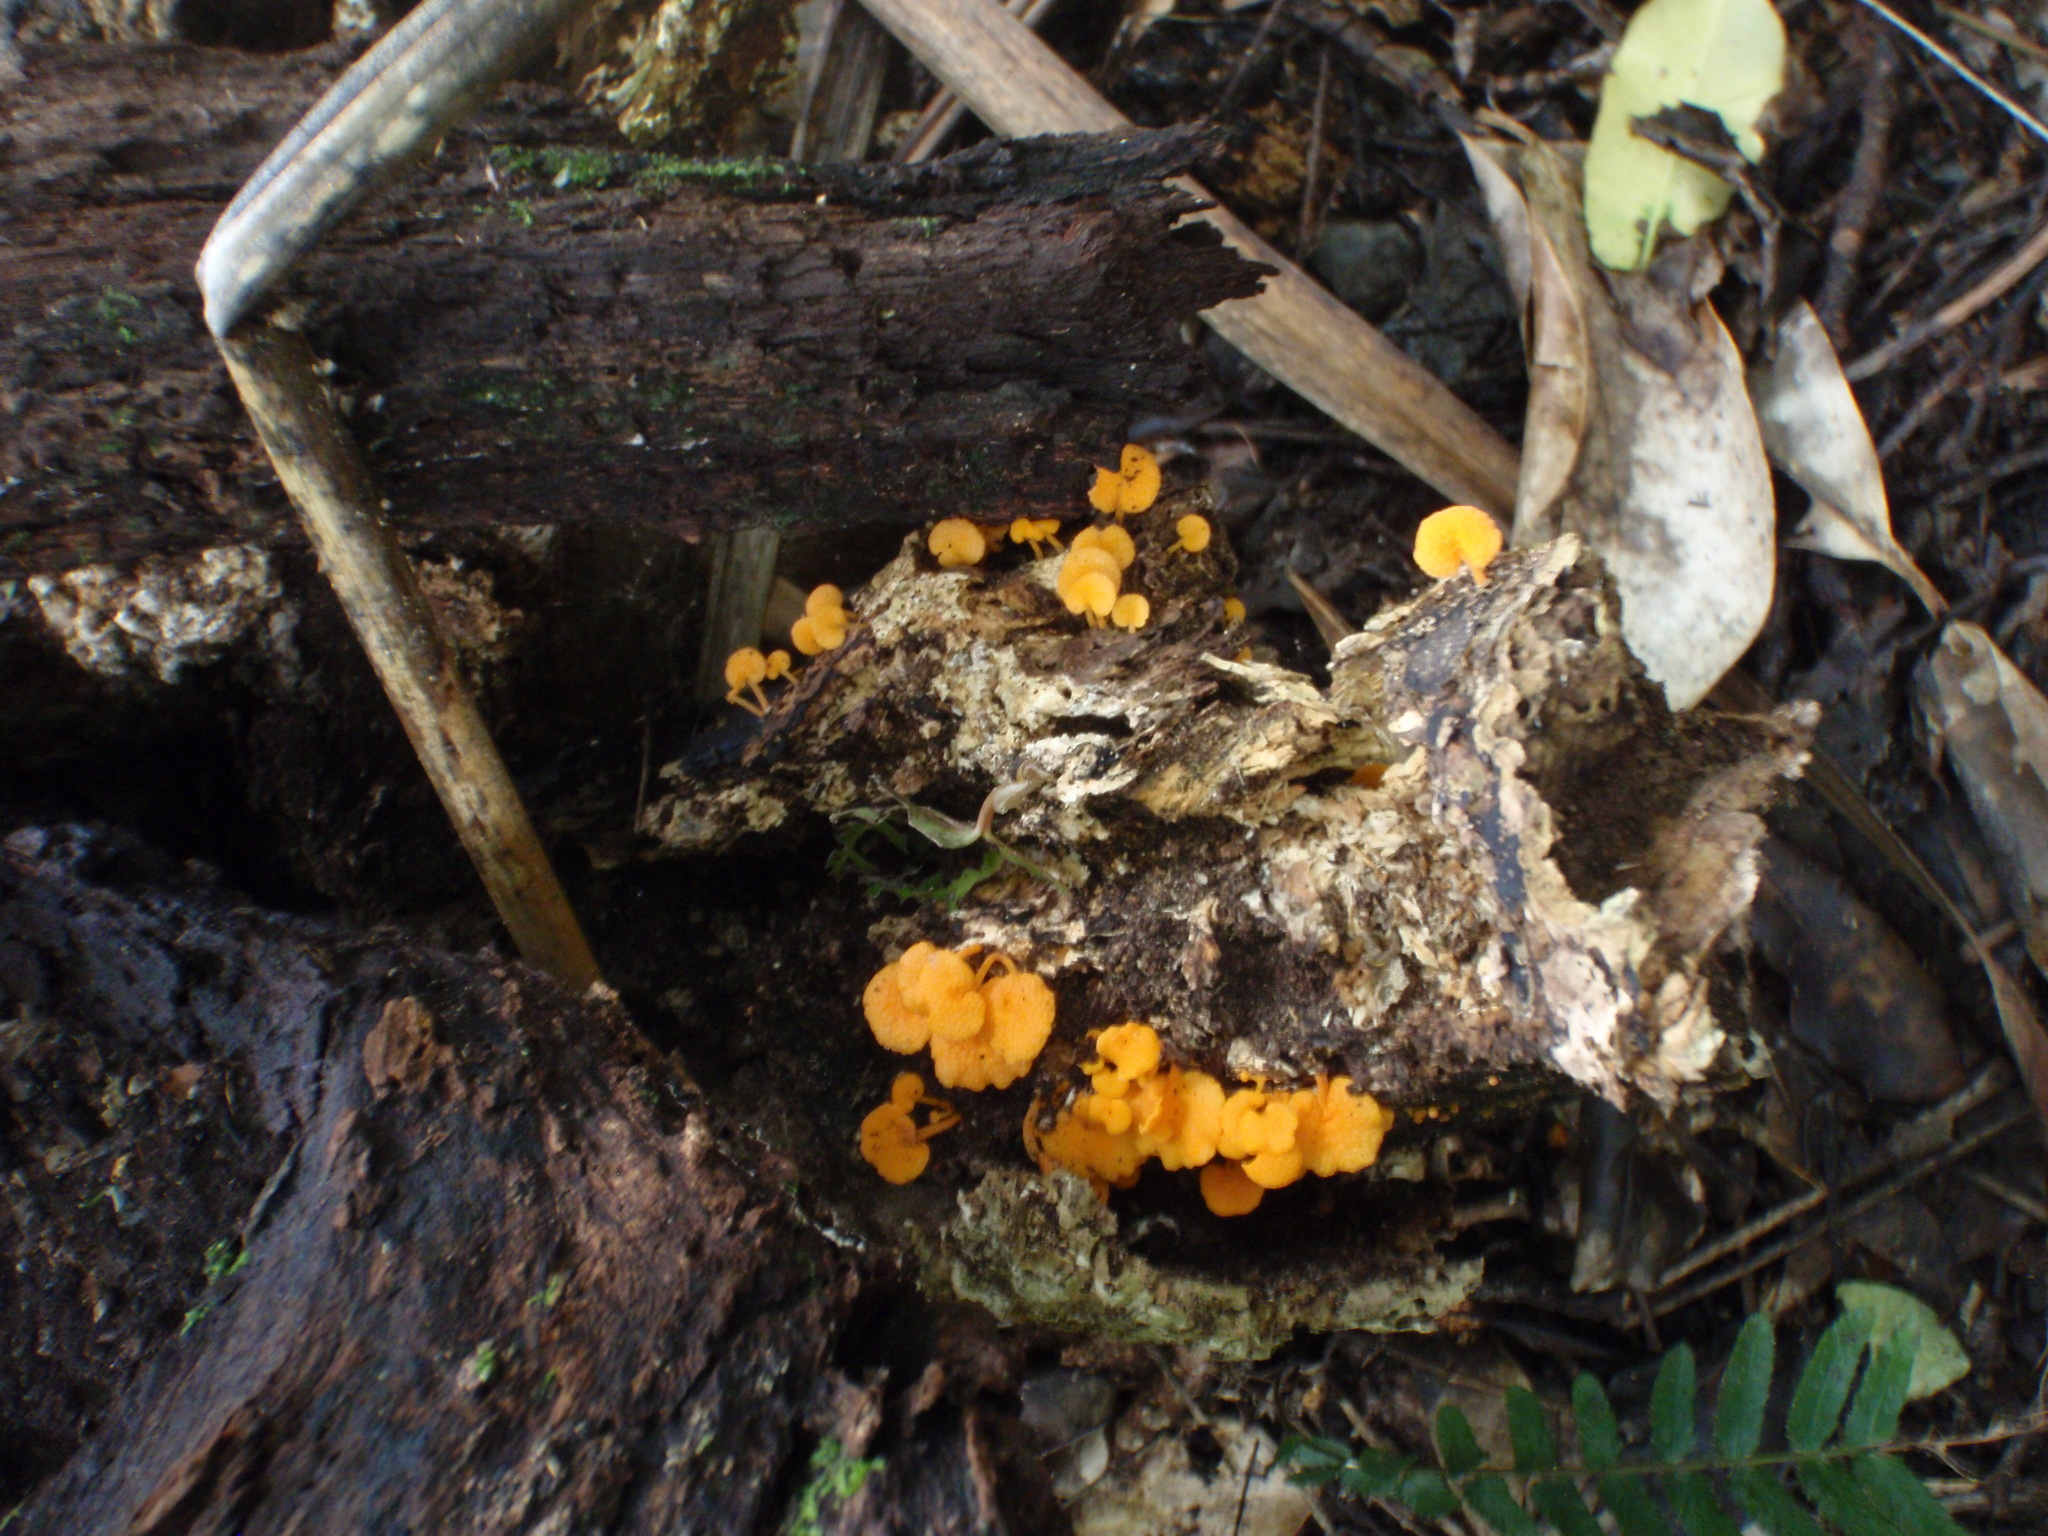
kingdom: Fungi
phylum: Basidiomycota
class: Agaricomycetes
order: Agaricales
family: Mycenaceae
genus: Favolaschia
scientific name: Favolaschia claudopus
